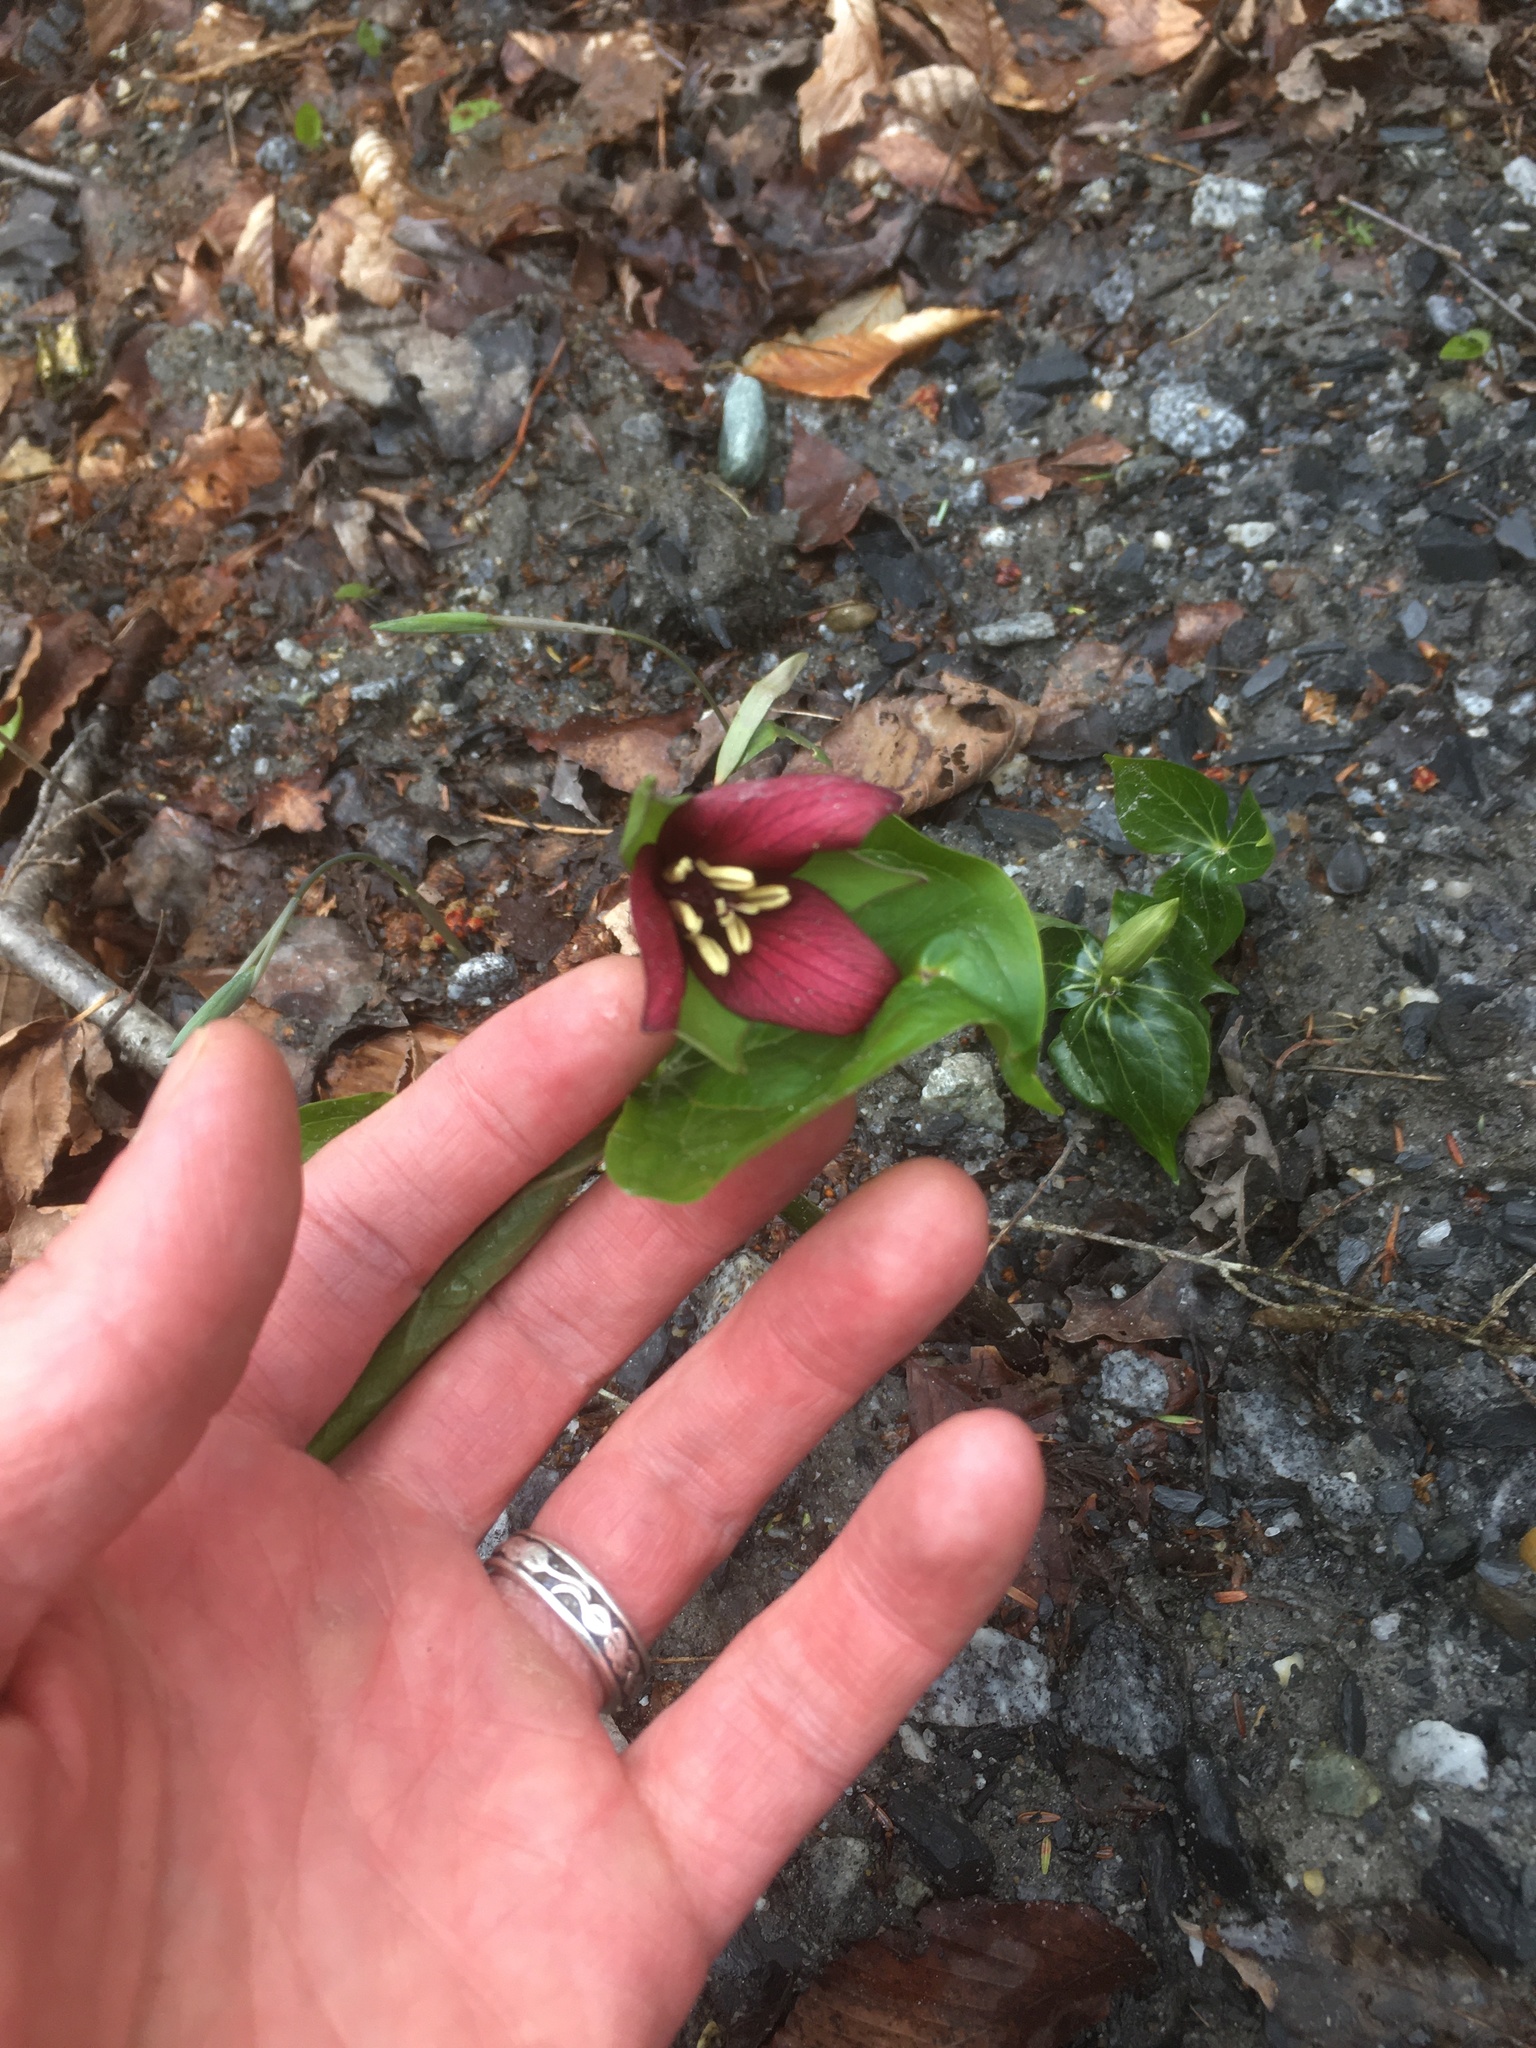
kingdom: Plantae
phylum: Tracheophyta
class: Liliopsida
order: Liliales
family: Melanthiaceae
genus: Trillium
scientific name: Trillium erectum
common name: Purple trillium
